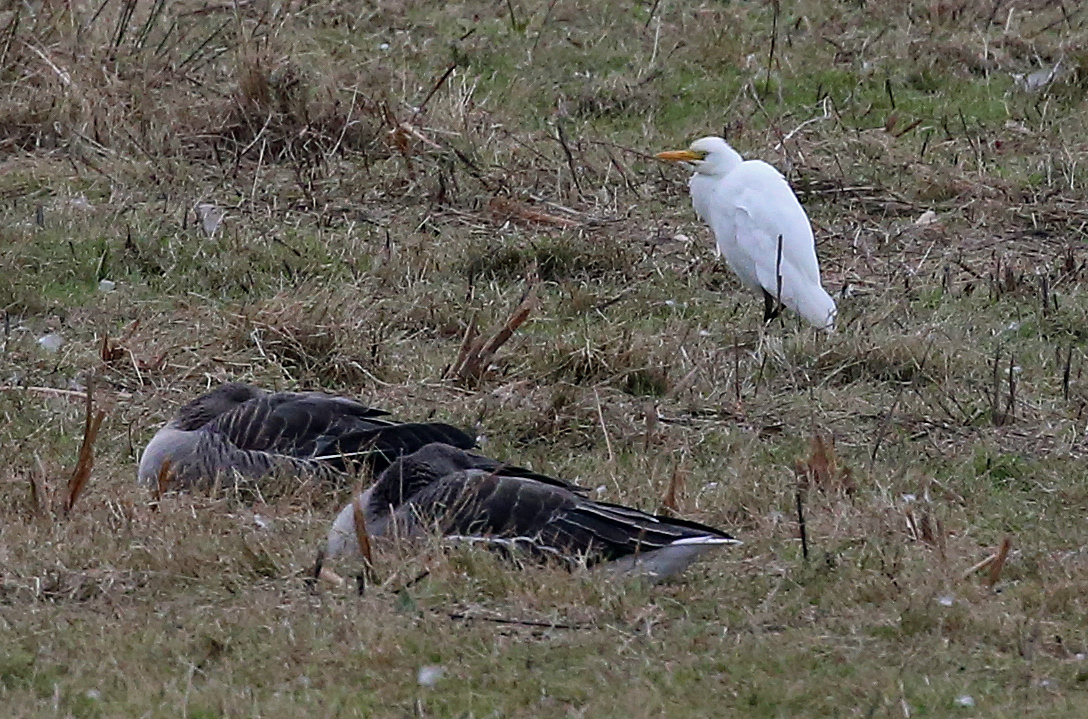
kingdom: Animalia
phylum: Chordata
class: Aves
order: Pelecaniformes
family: Ardeidae
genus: Bubulcus
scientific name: Bubulcus ibis
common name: Cattle egret
